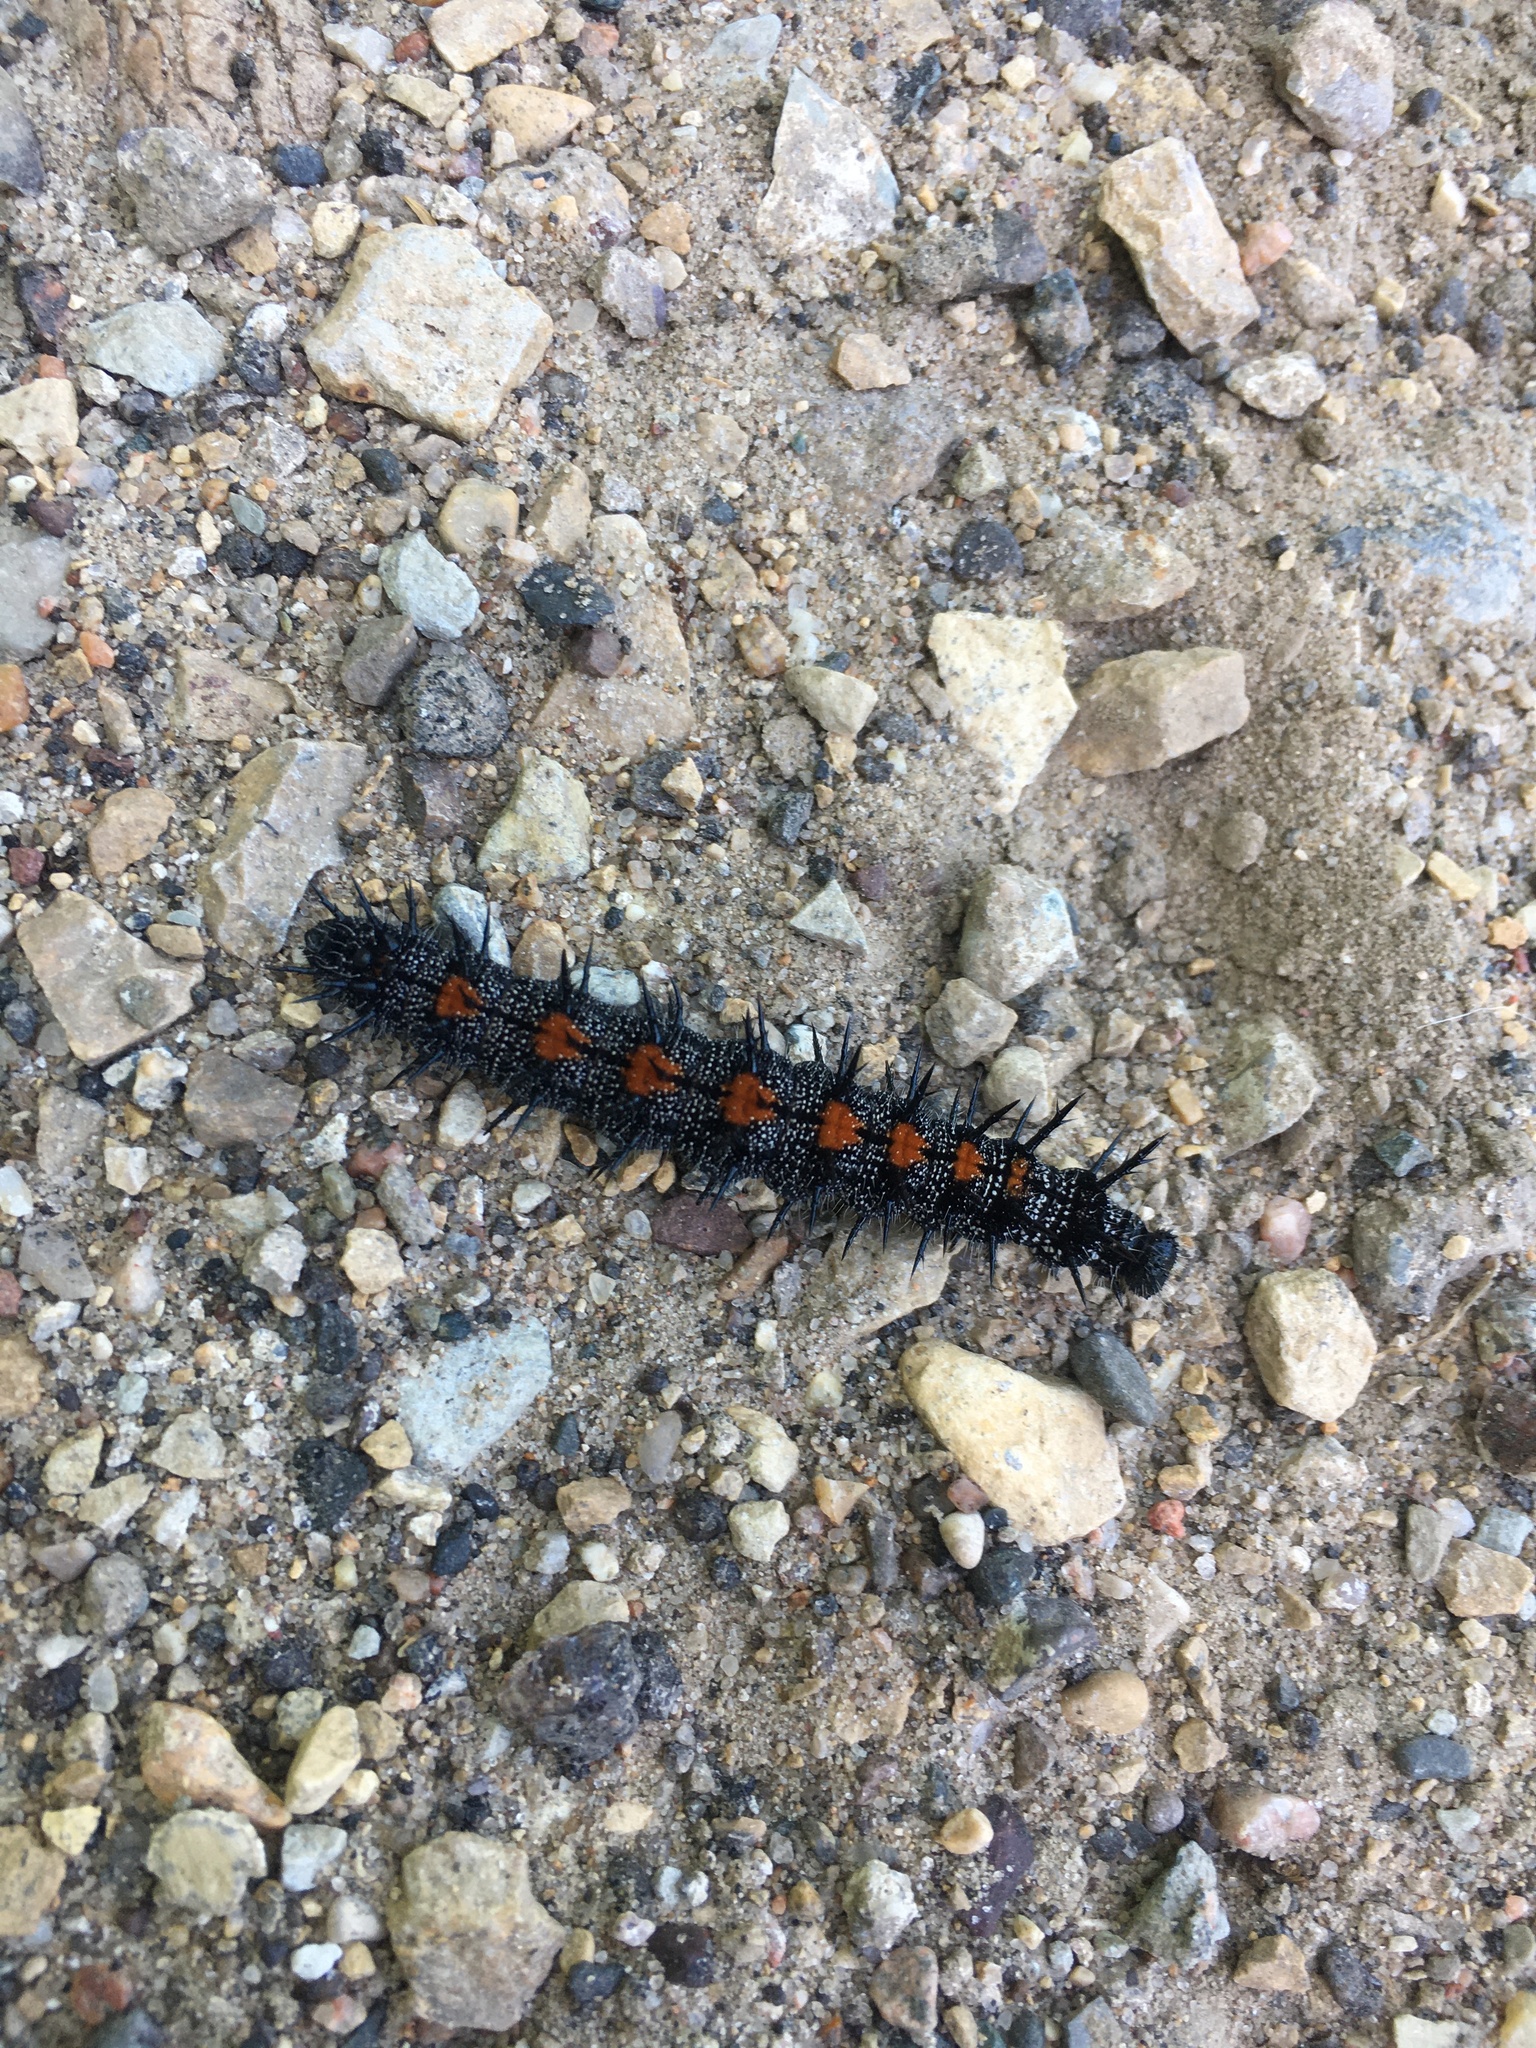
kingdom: Animalia
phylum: Arthropoda
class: Insecta
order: Lepidoptera
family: Nymphalidae
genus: Nymphalis
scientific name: Nymphalis antiopa
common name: Camberwell beauty
